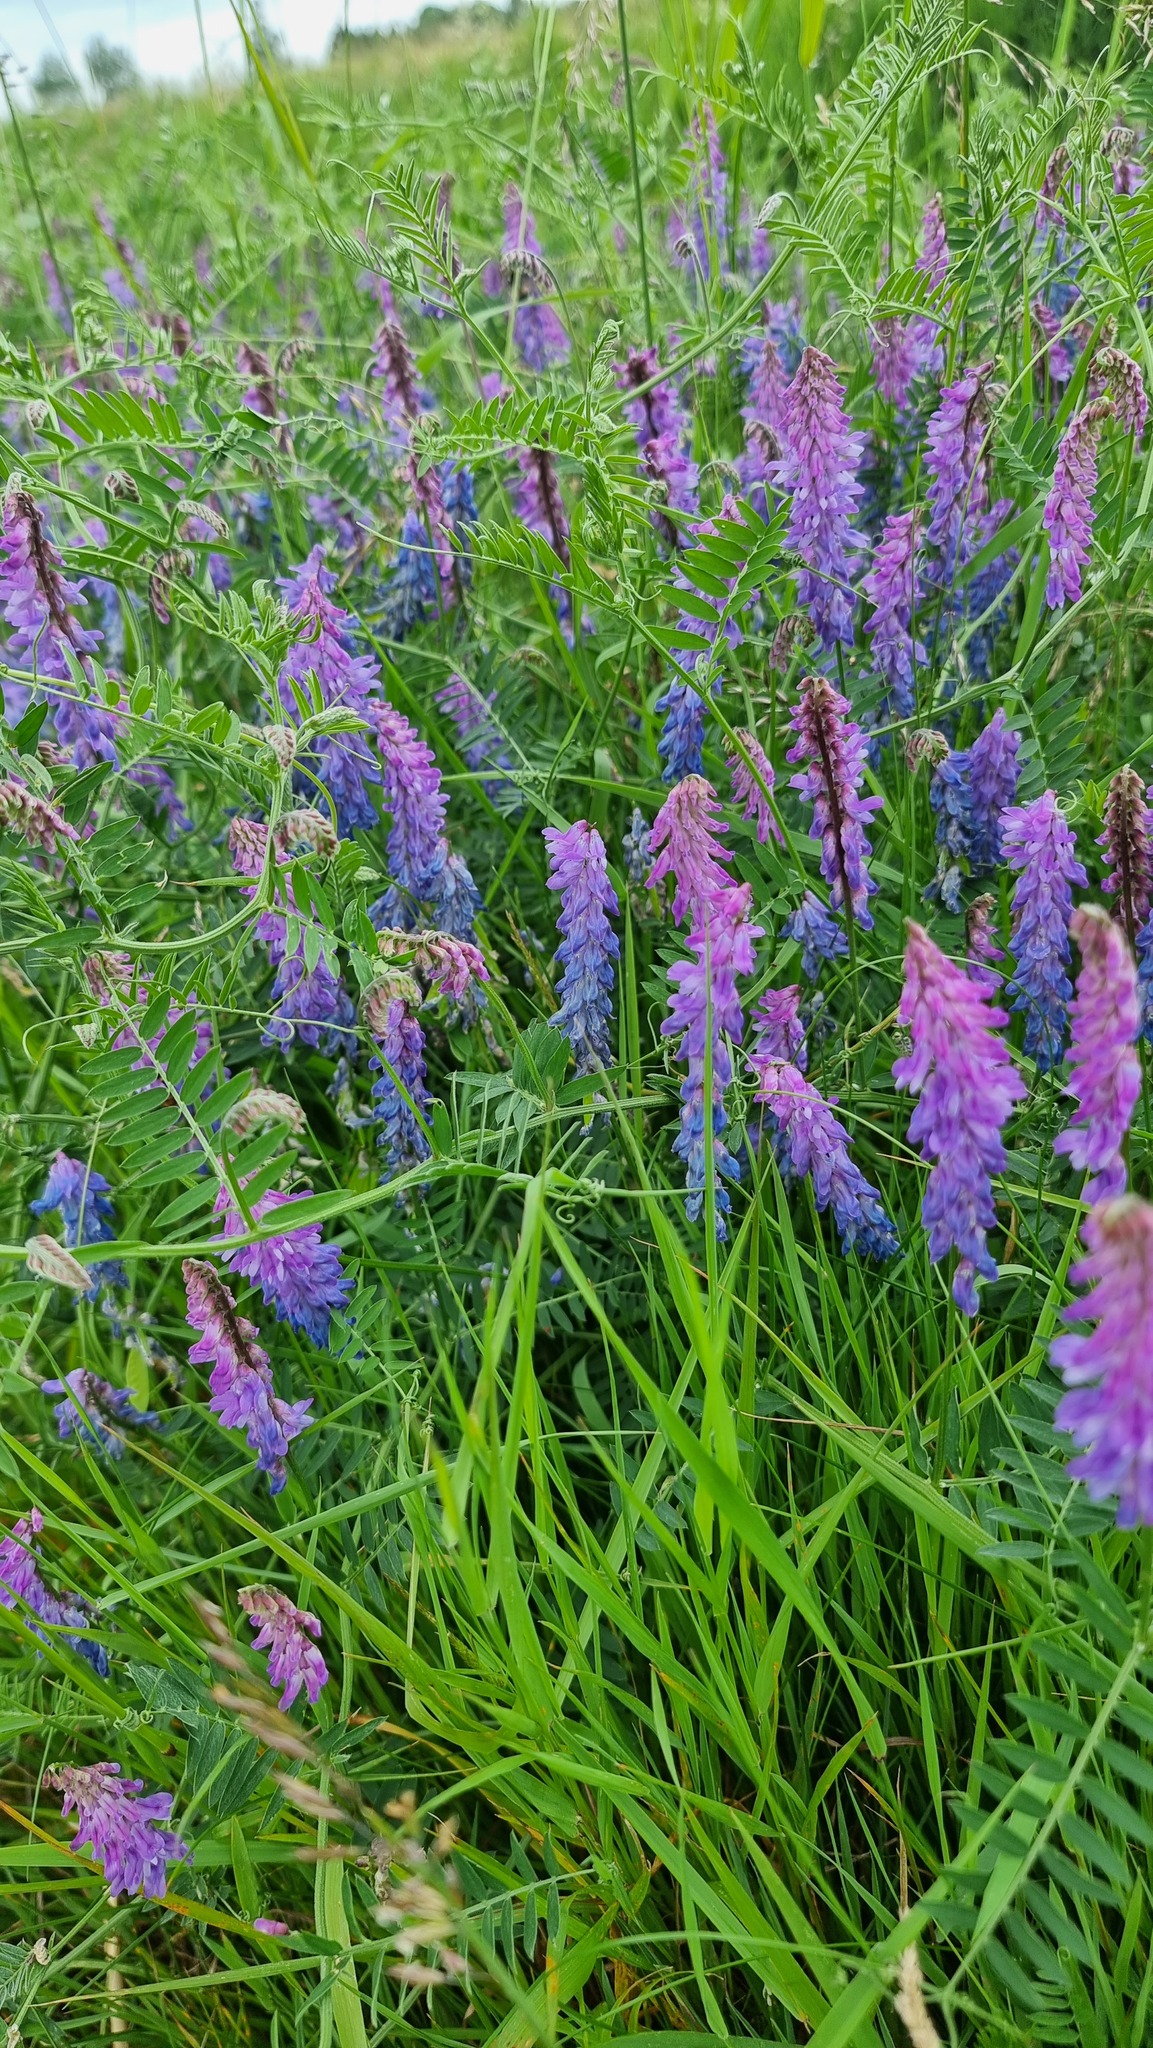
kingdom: Plantae
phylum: Tracheophyta
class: Magnoliopsida
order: Fabales
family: Fabaceae
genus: Vicia
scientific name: Vicia cracca
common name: Bird vetch
